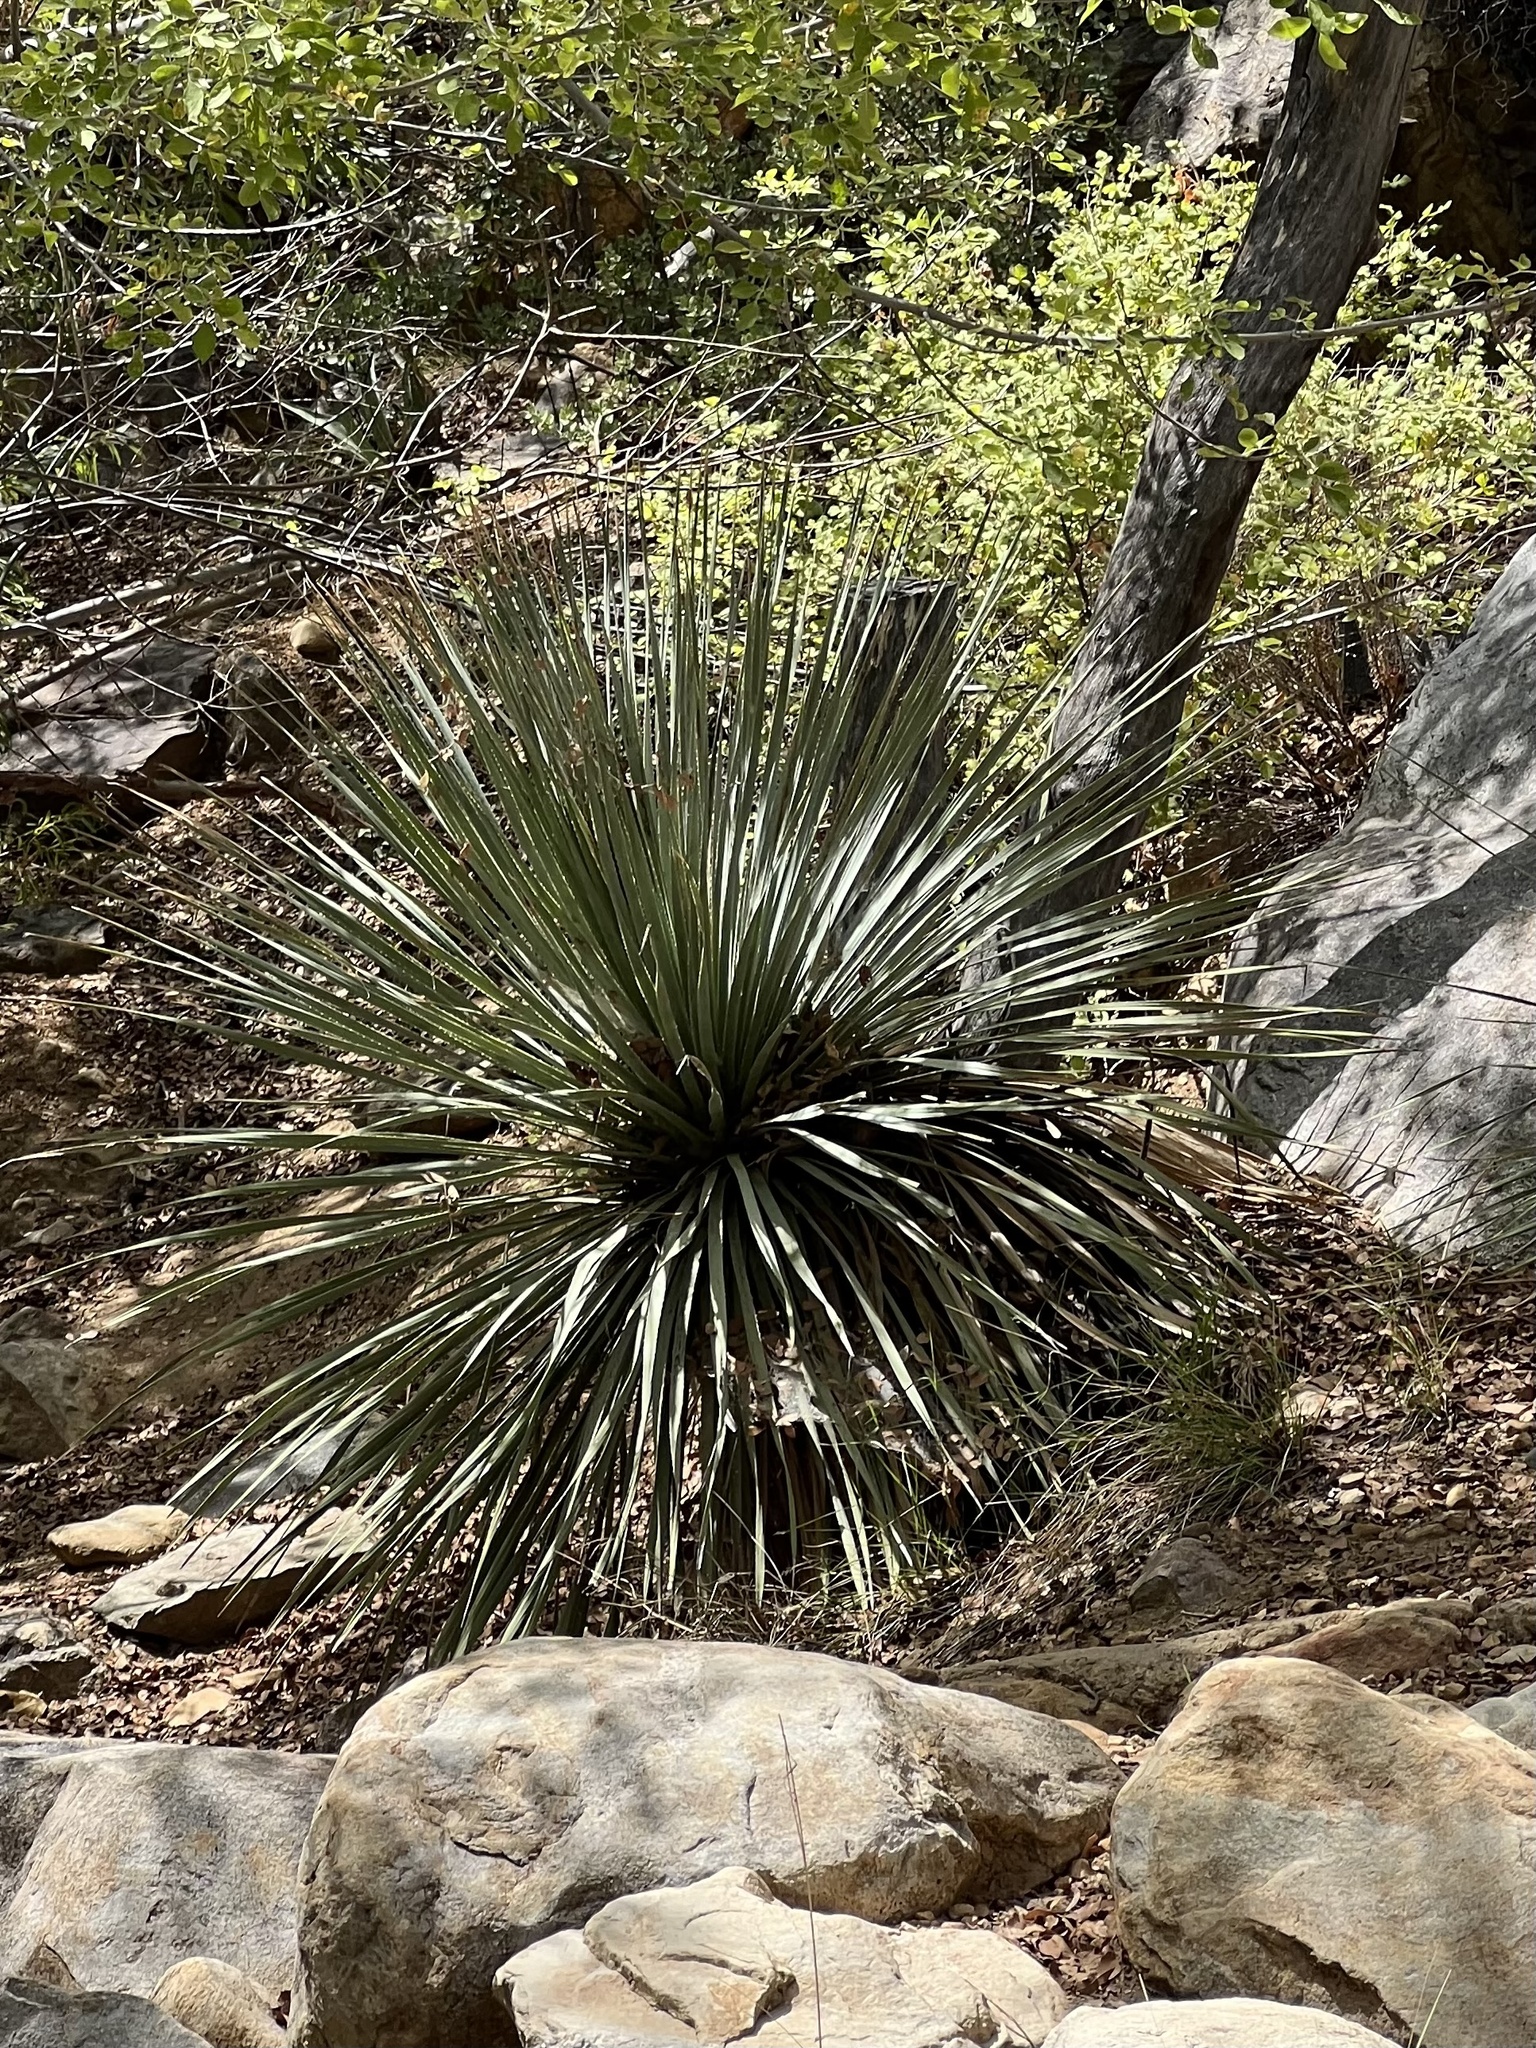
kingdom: Plantae
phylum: Tracheophyta
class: Liliopsida
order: Asparagales
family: Asparagaceae
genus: Dasylirion
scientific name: Dasylirion wheeleri
